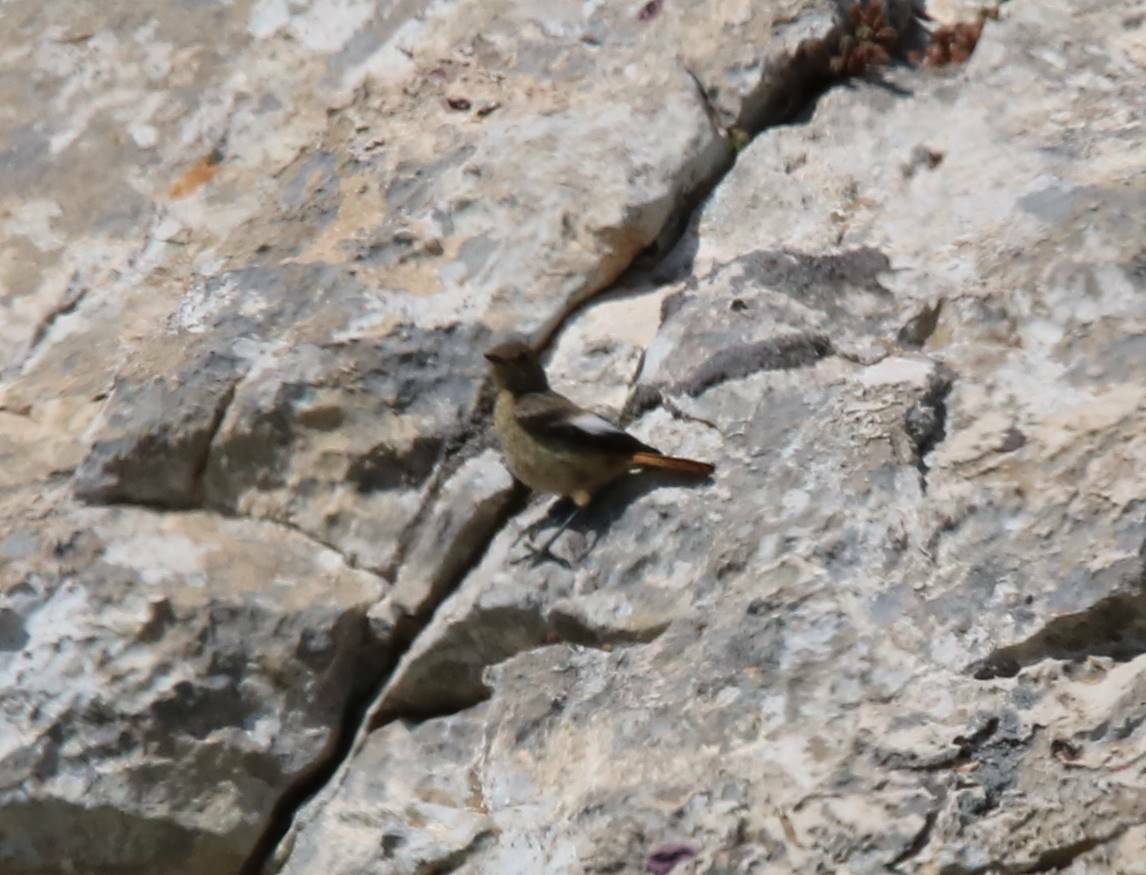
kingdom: Animalia
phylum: Chordata
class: Aves
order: Passeriformes
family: Muscicapidae
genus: Phoenicurus
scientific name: Phoenicurus ochruros
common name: Black redstart
